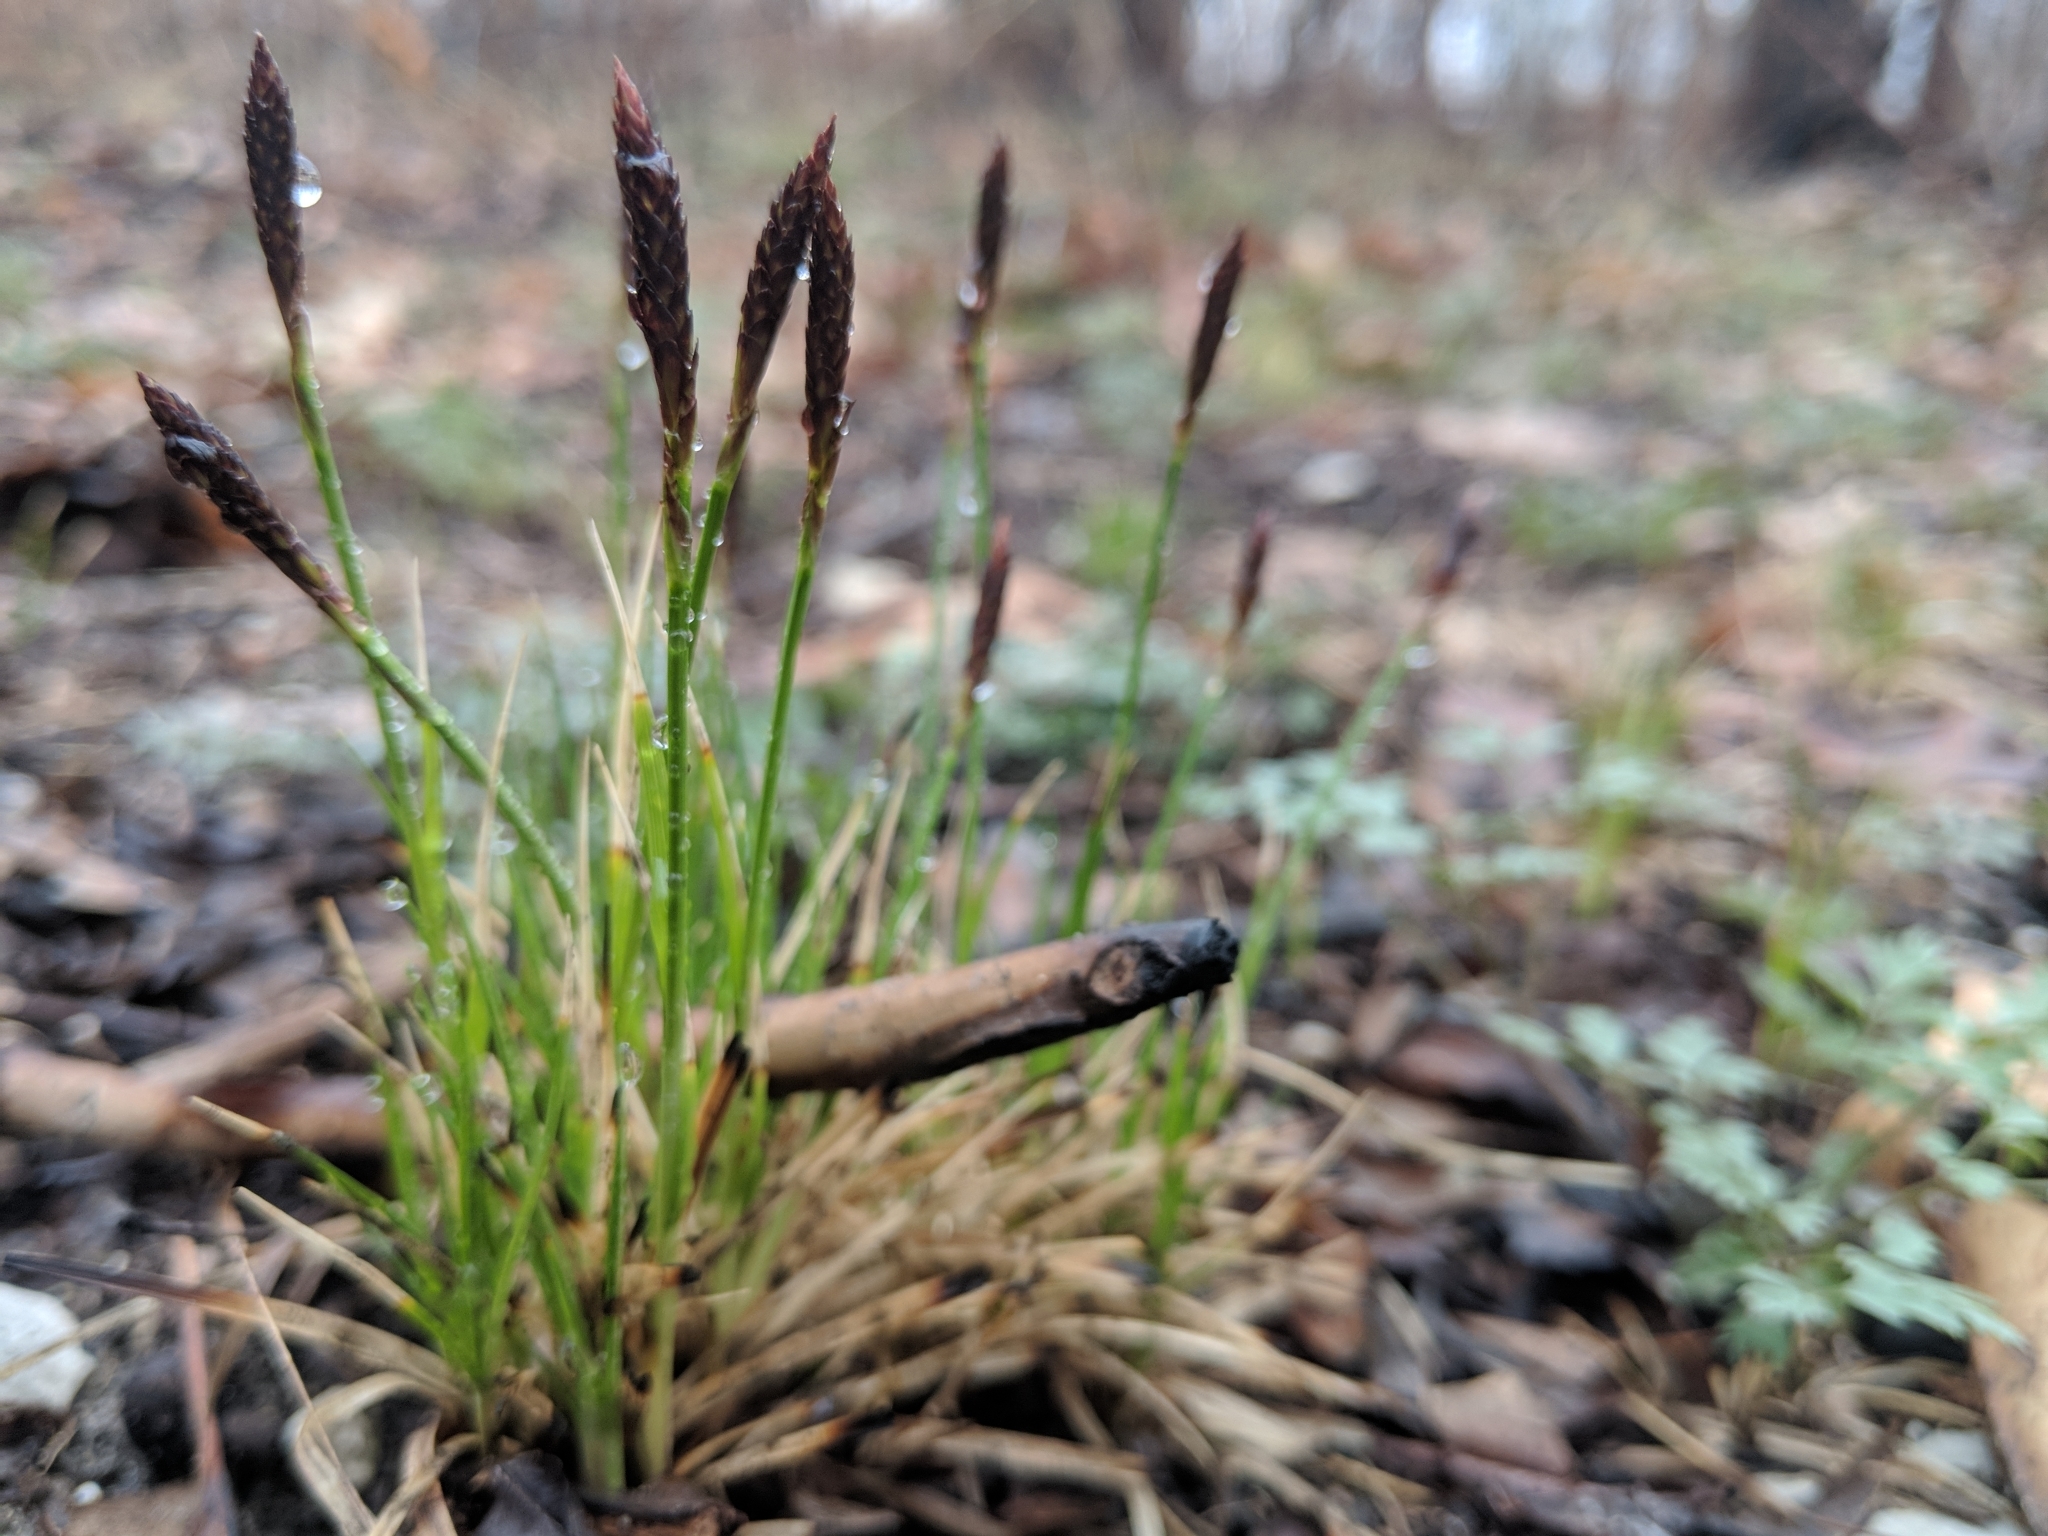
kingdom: Plantae
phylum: Tracheophyta
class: Liliopsida
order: Poales
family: Cyperaceae
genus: Carex
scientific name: Carex pensylvanica
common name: Common oak sedge
